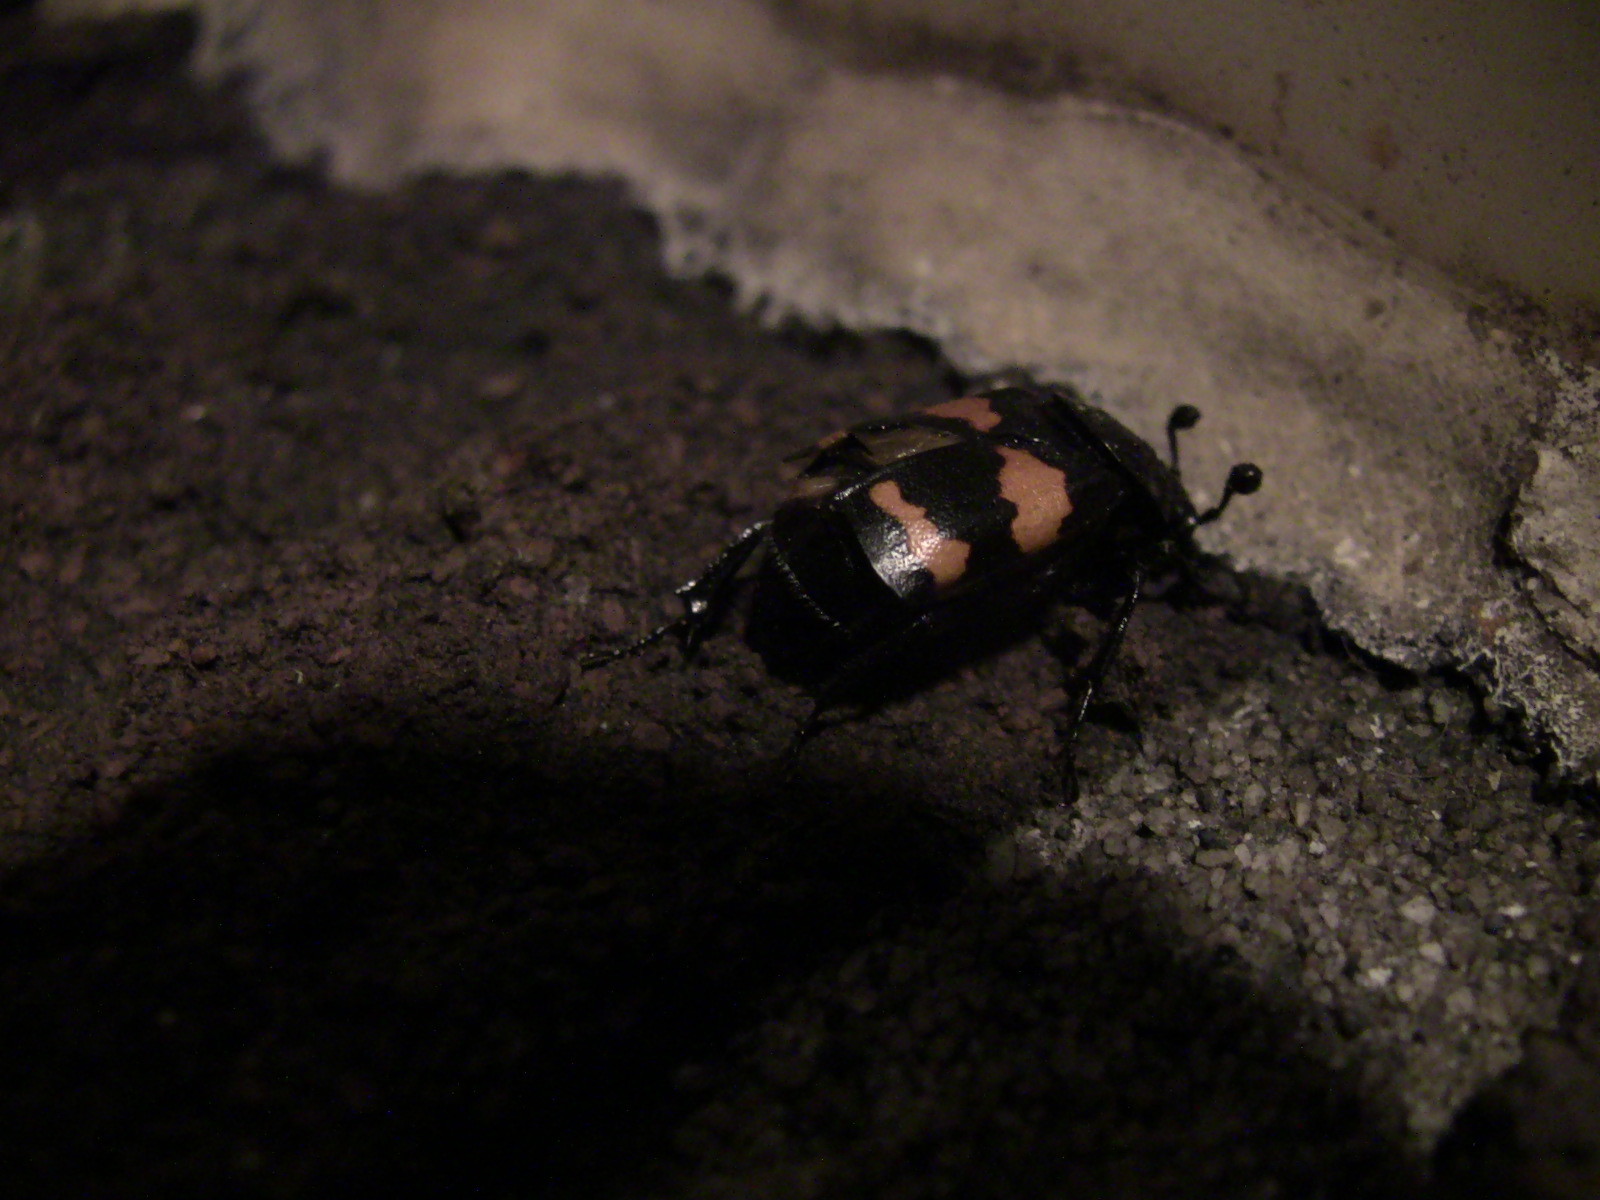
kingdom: Animalia
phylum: Arthropoda
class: Insecta
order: Coleoptera
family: Staphylinidae
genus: Nicrophorus
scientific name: Nicrophorus tomentosus
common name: Tomentose burying beetle
